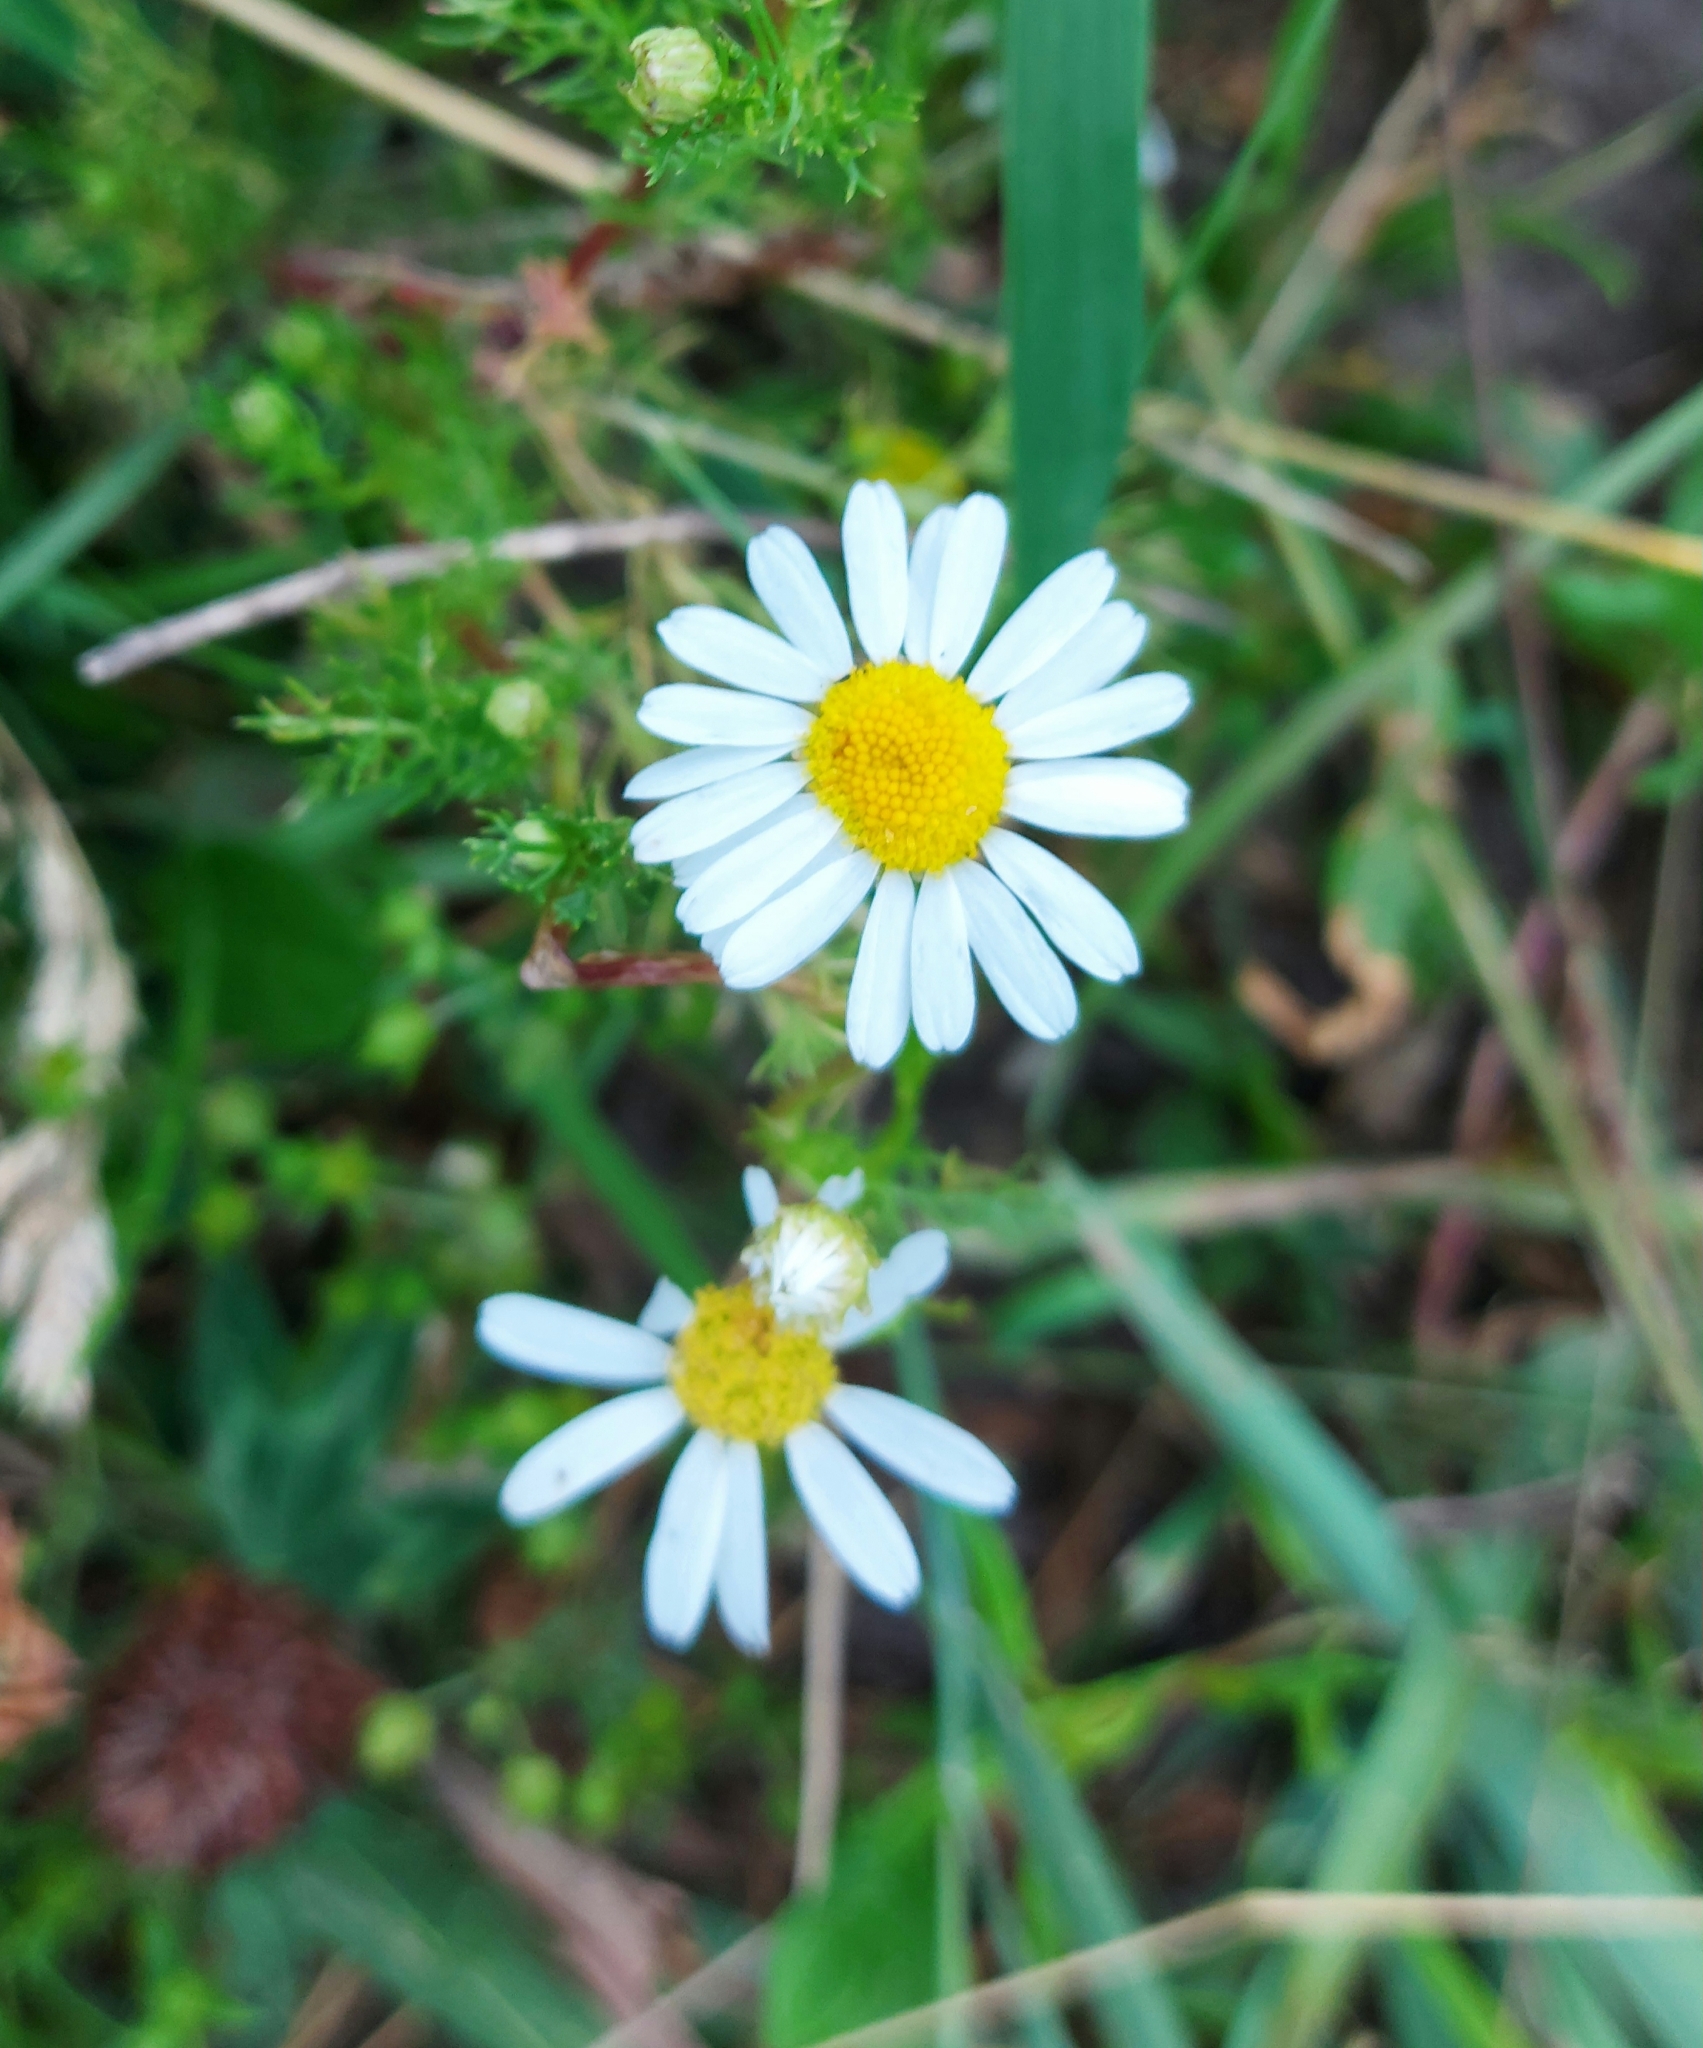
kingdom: Plantae
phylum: Tracheophyta
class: Magnoliopsida
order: Asterales
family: Asteraceae
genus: Tripleurospermum
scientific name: Tripleurospermum inodorum
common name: Scentless mayweed
